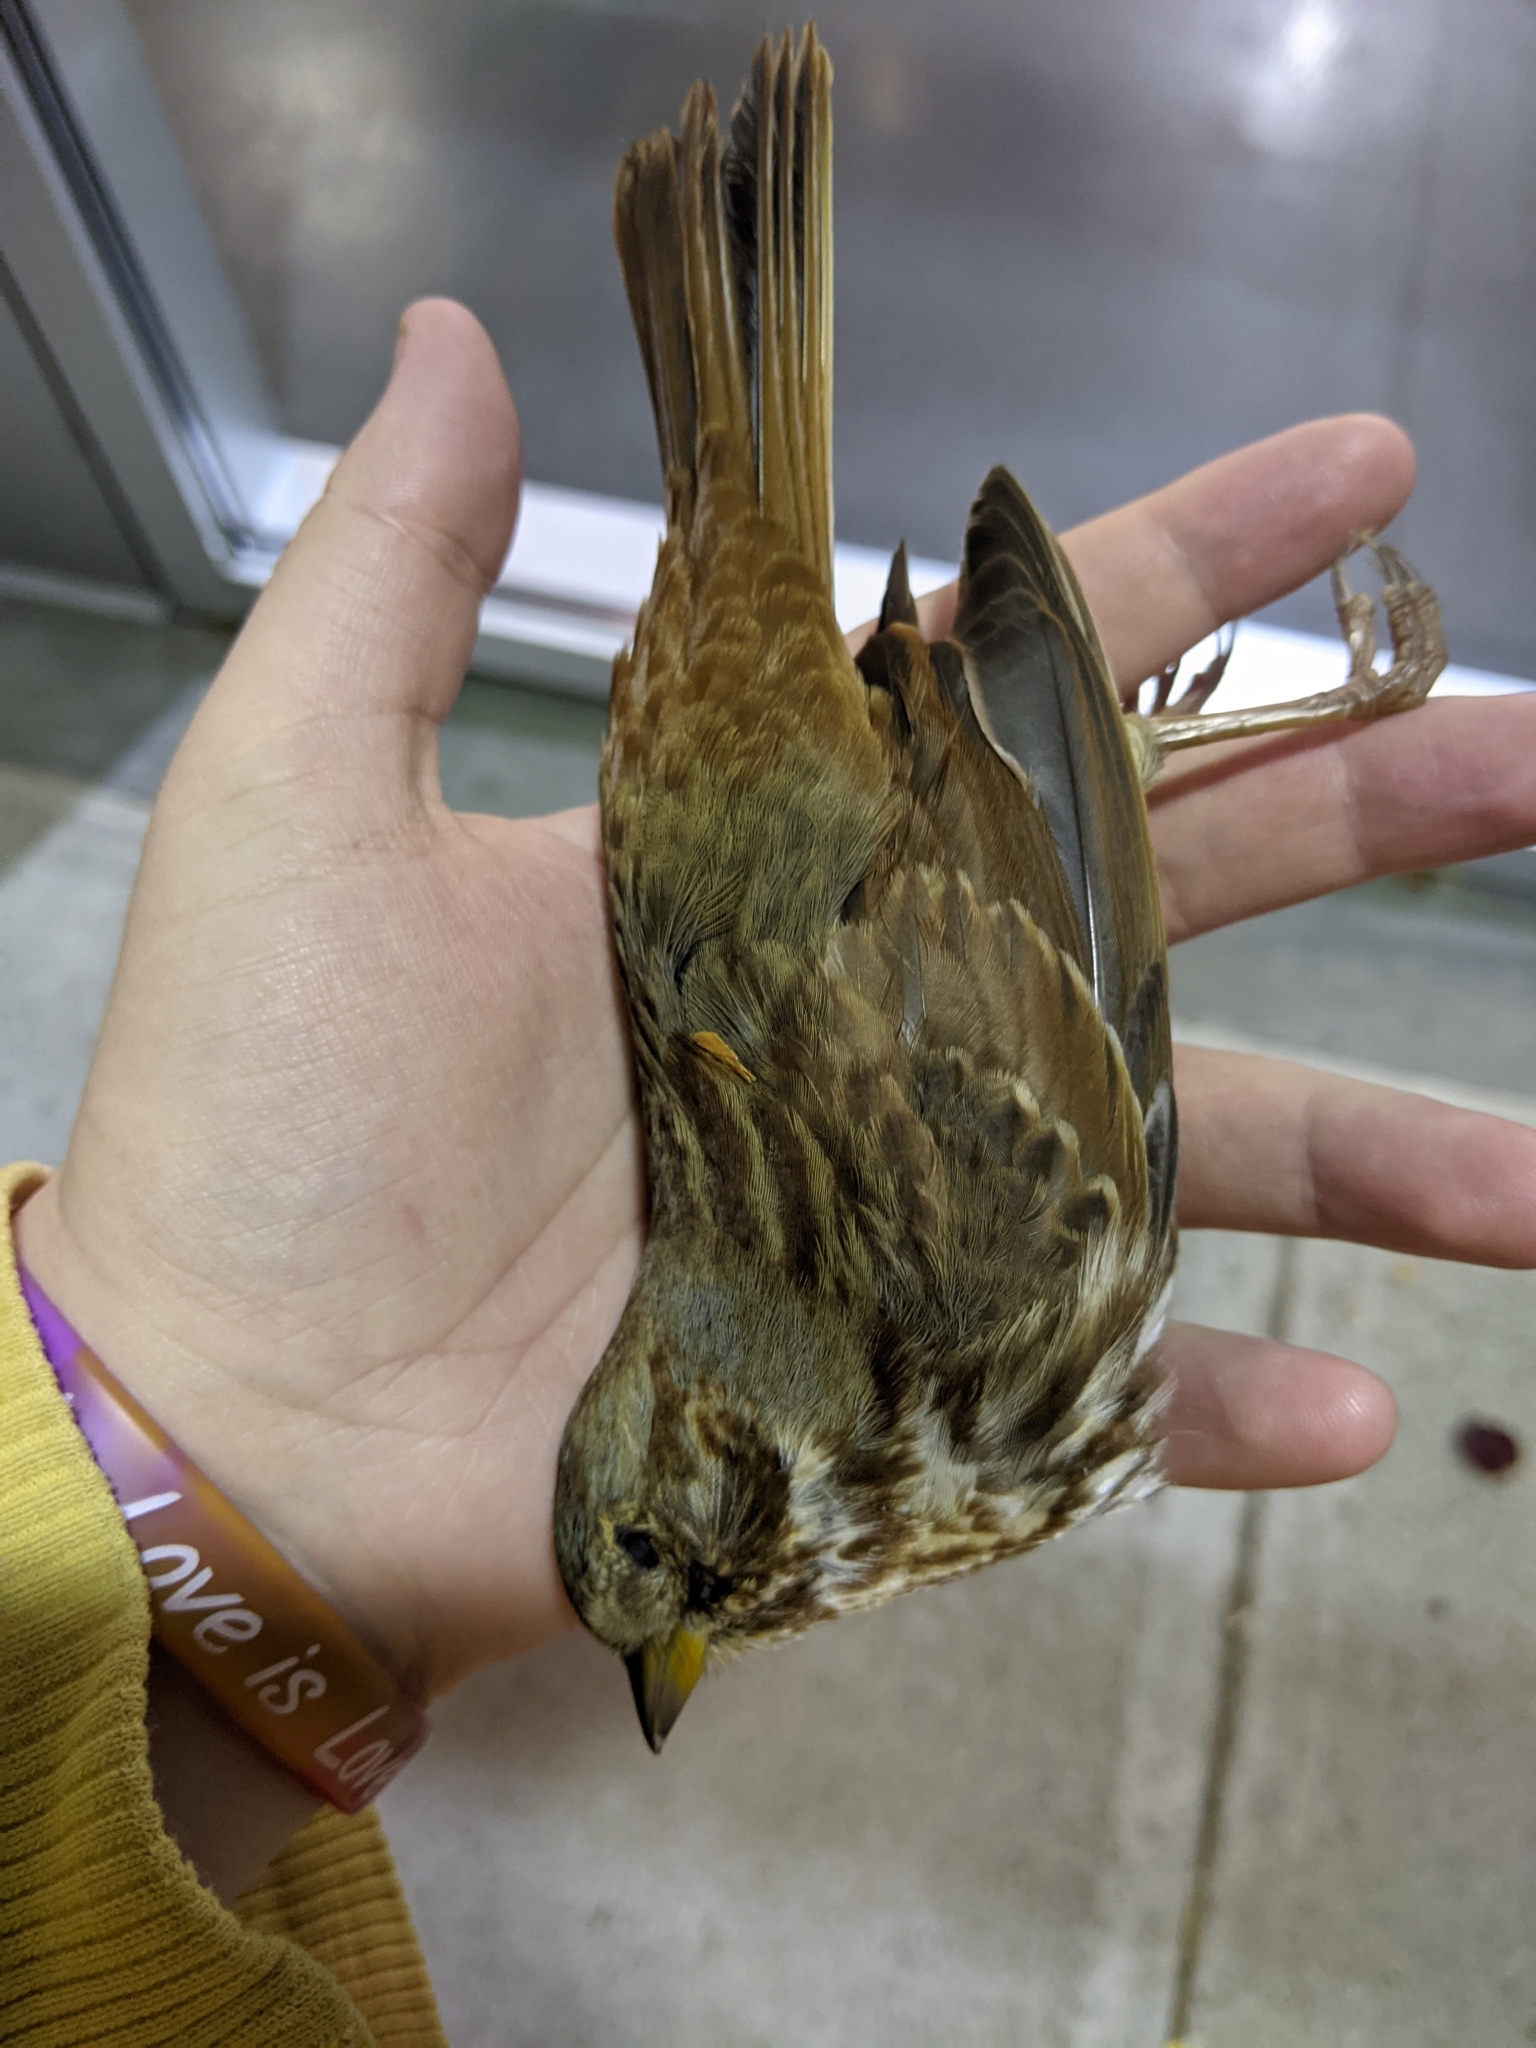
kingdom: Animalia
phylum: Chordata
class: Aves
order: Passeriformes
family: Passerellidae
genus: Passerella
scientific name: Passerella iliaca
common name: Fox sparrow
